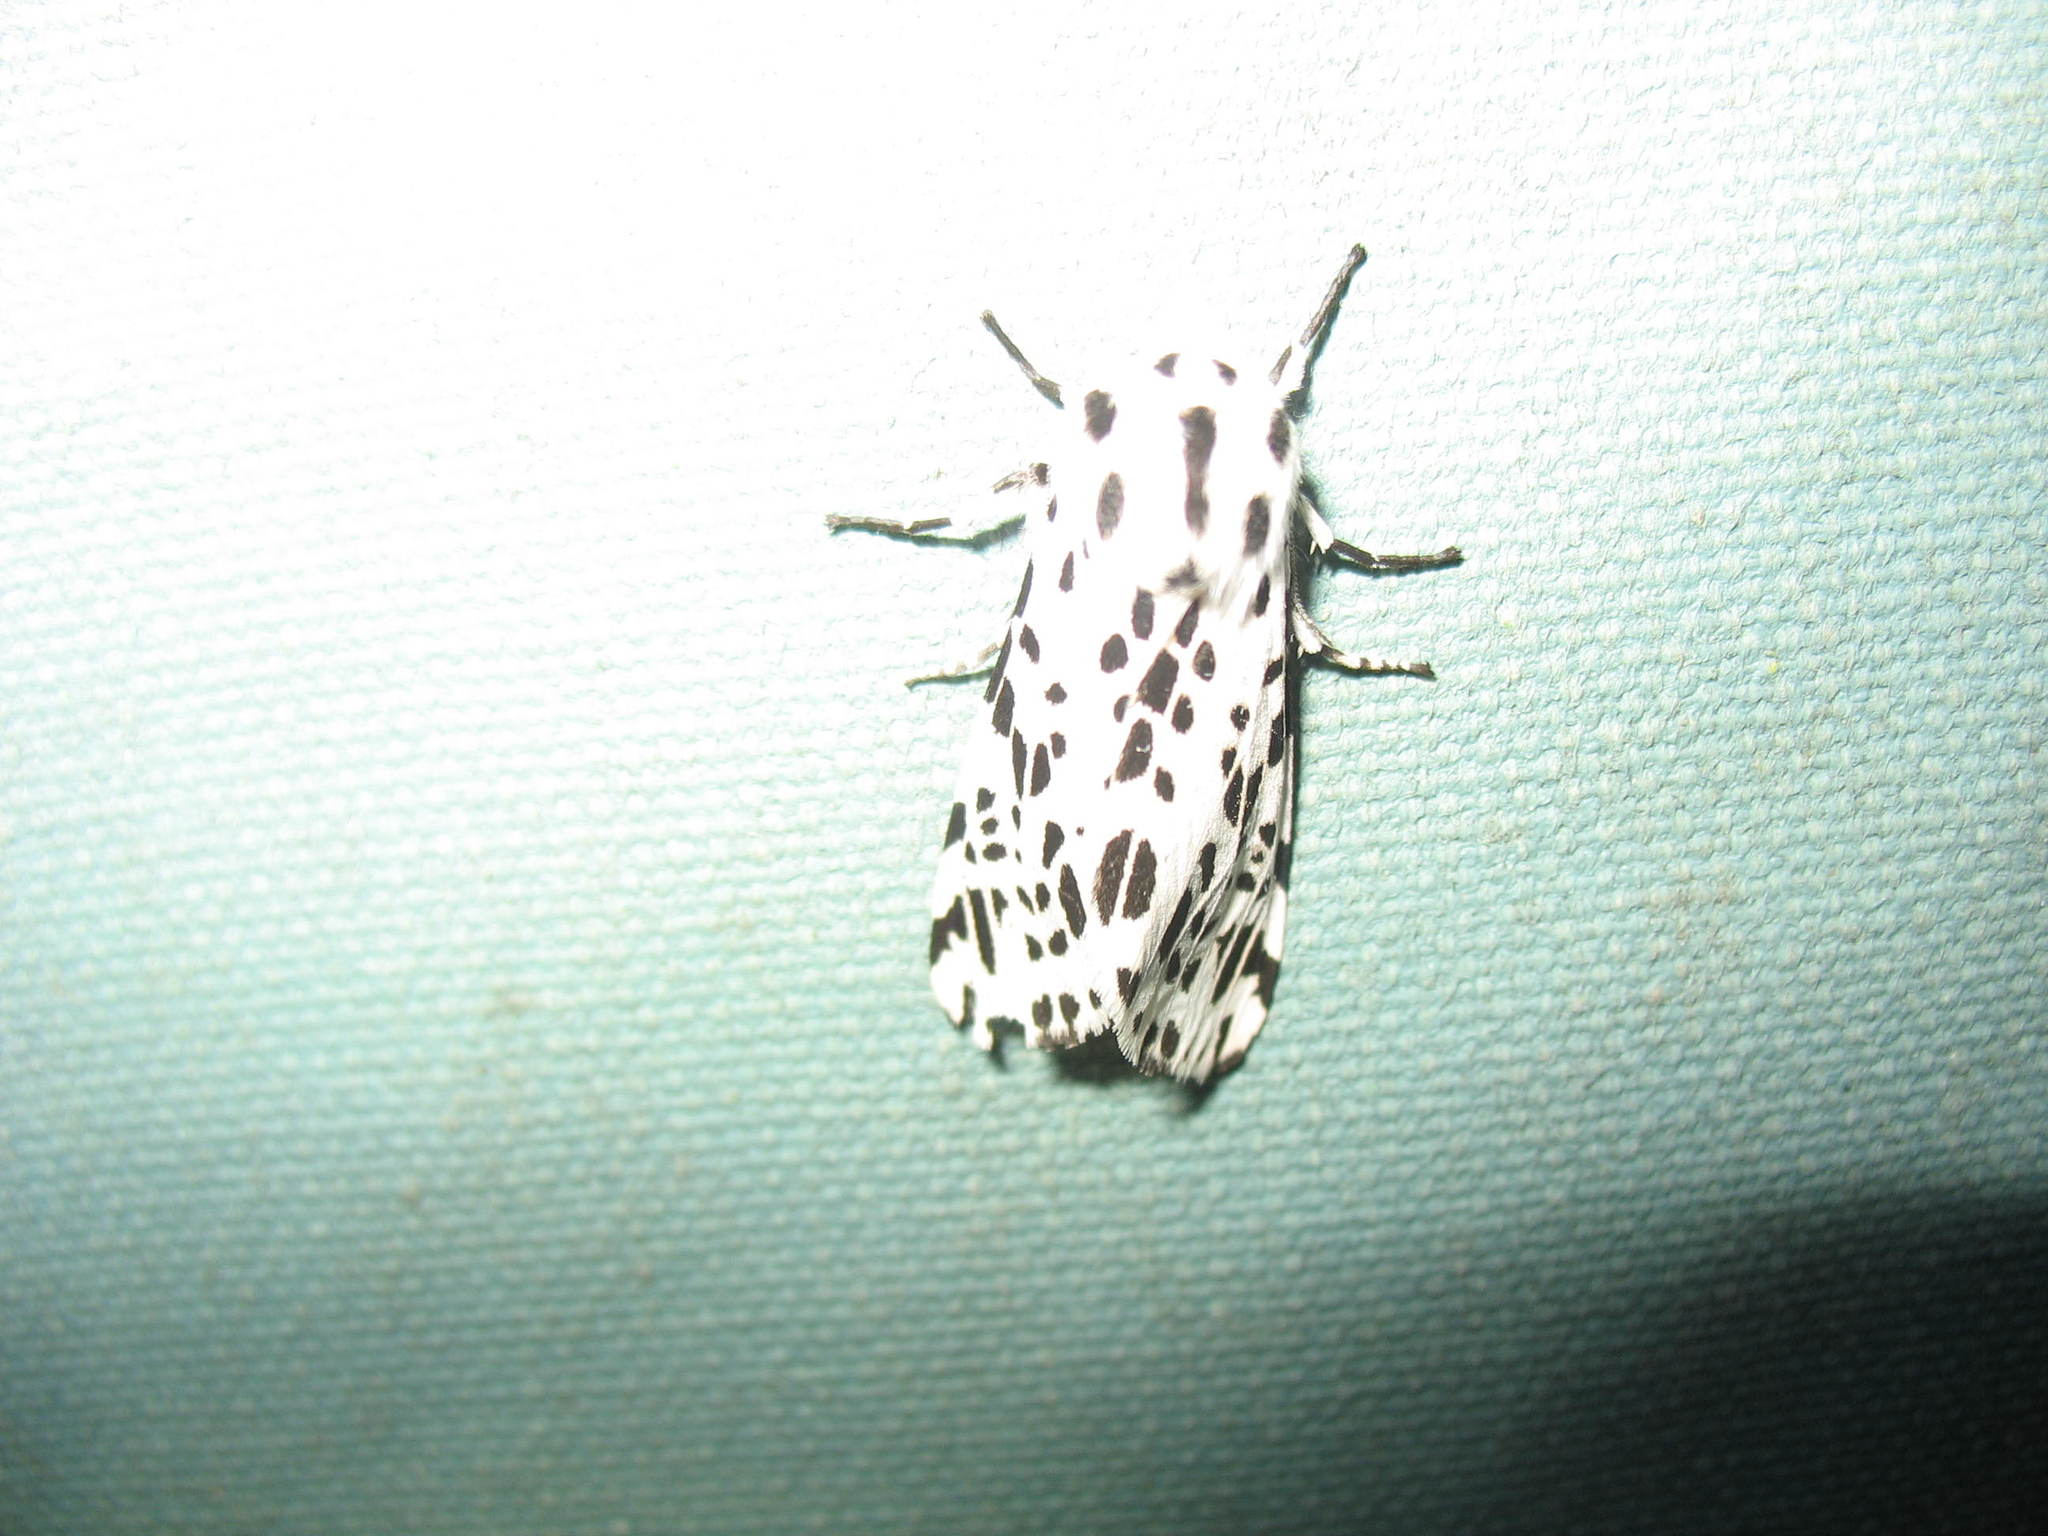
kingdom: Animalia
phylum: Arthropoda
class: Insecta
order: Lepidoptera
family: Erebidae
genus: Hypercompe
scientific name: Hypercompe permaculata
